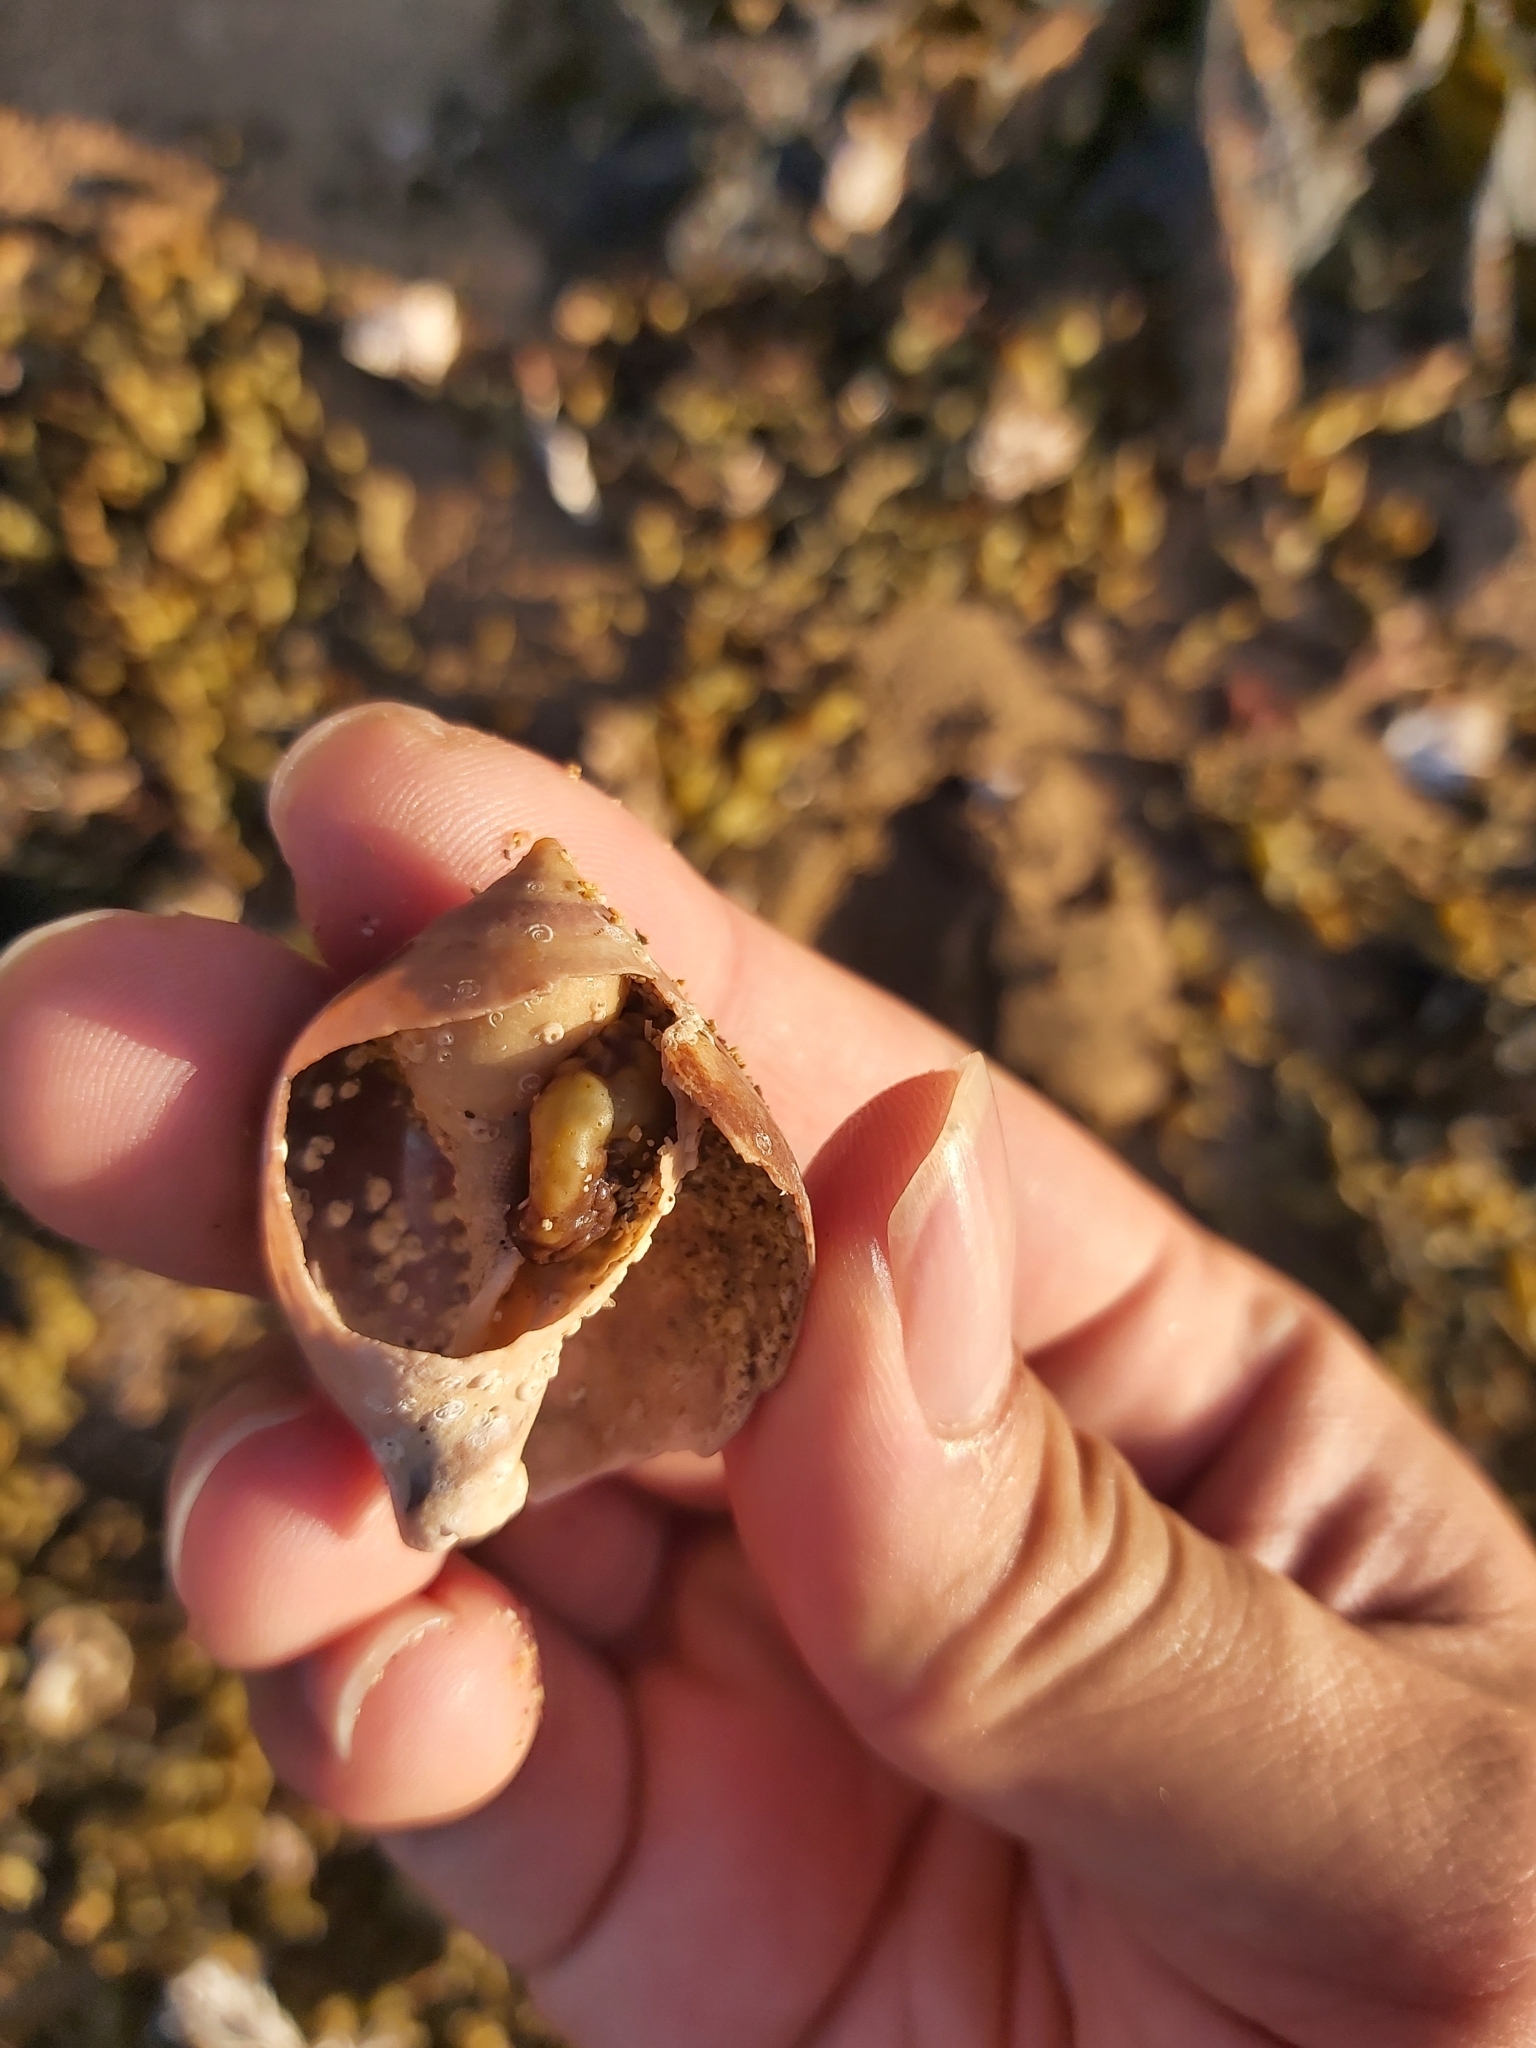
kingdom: Animalia
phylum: Mollusca
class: Gastropoda
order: Littorinimorpha
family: Cassidae
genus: Semicassis
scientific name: Semicassis labiata
